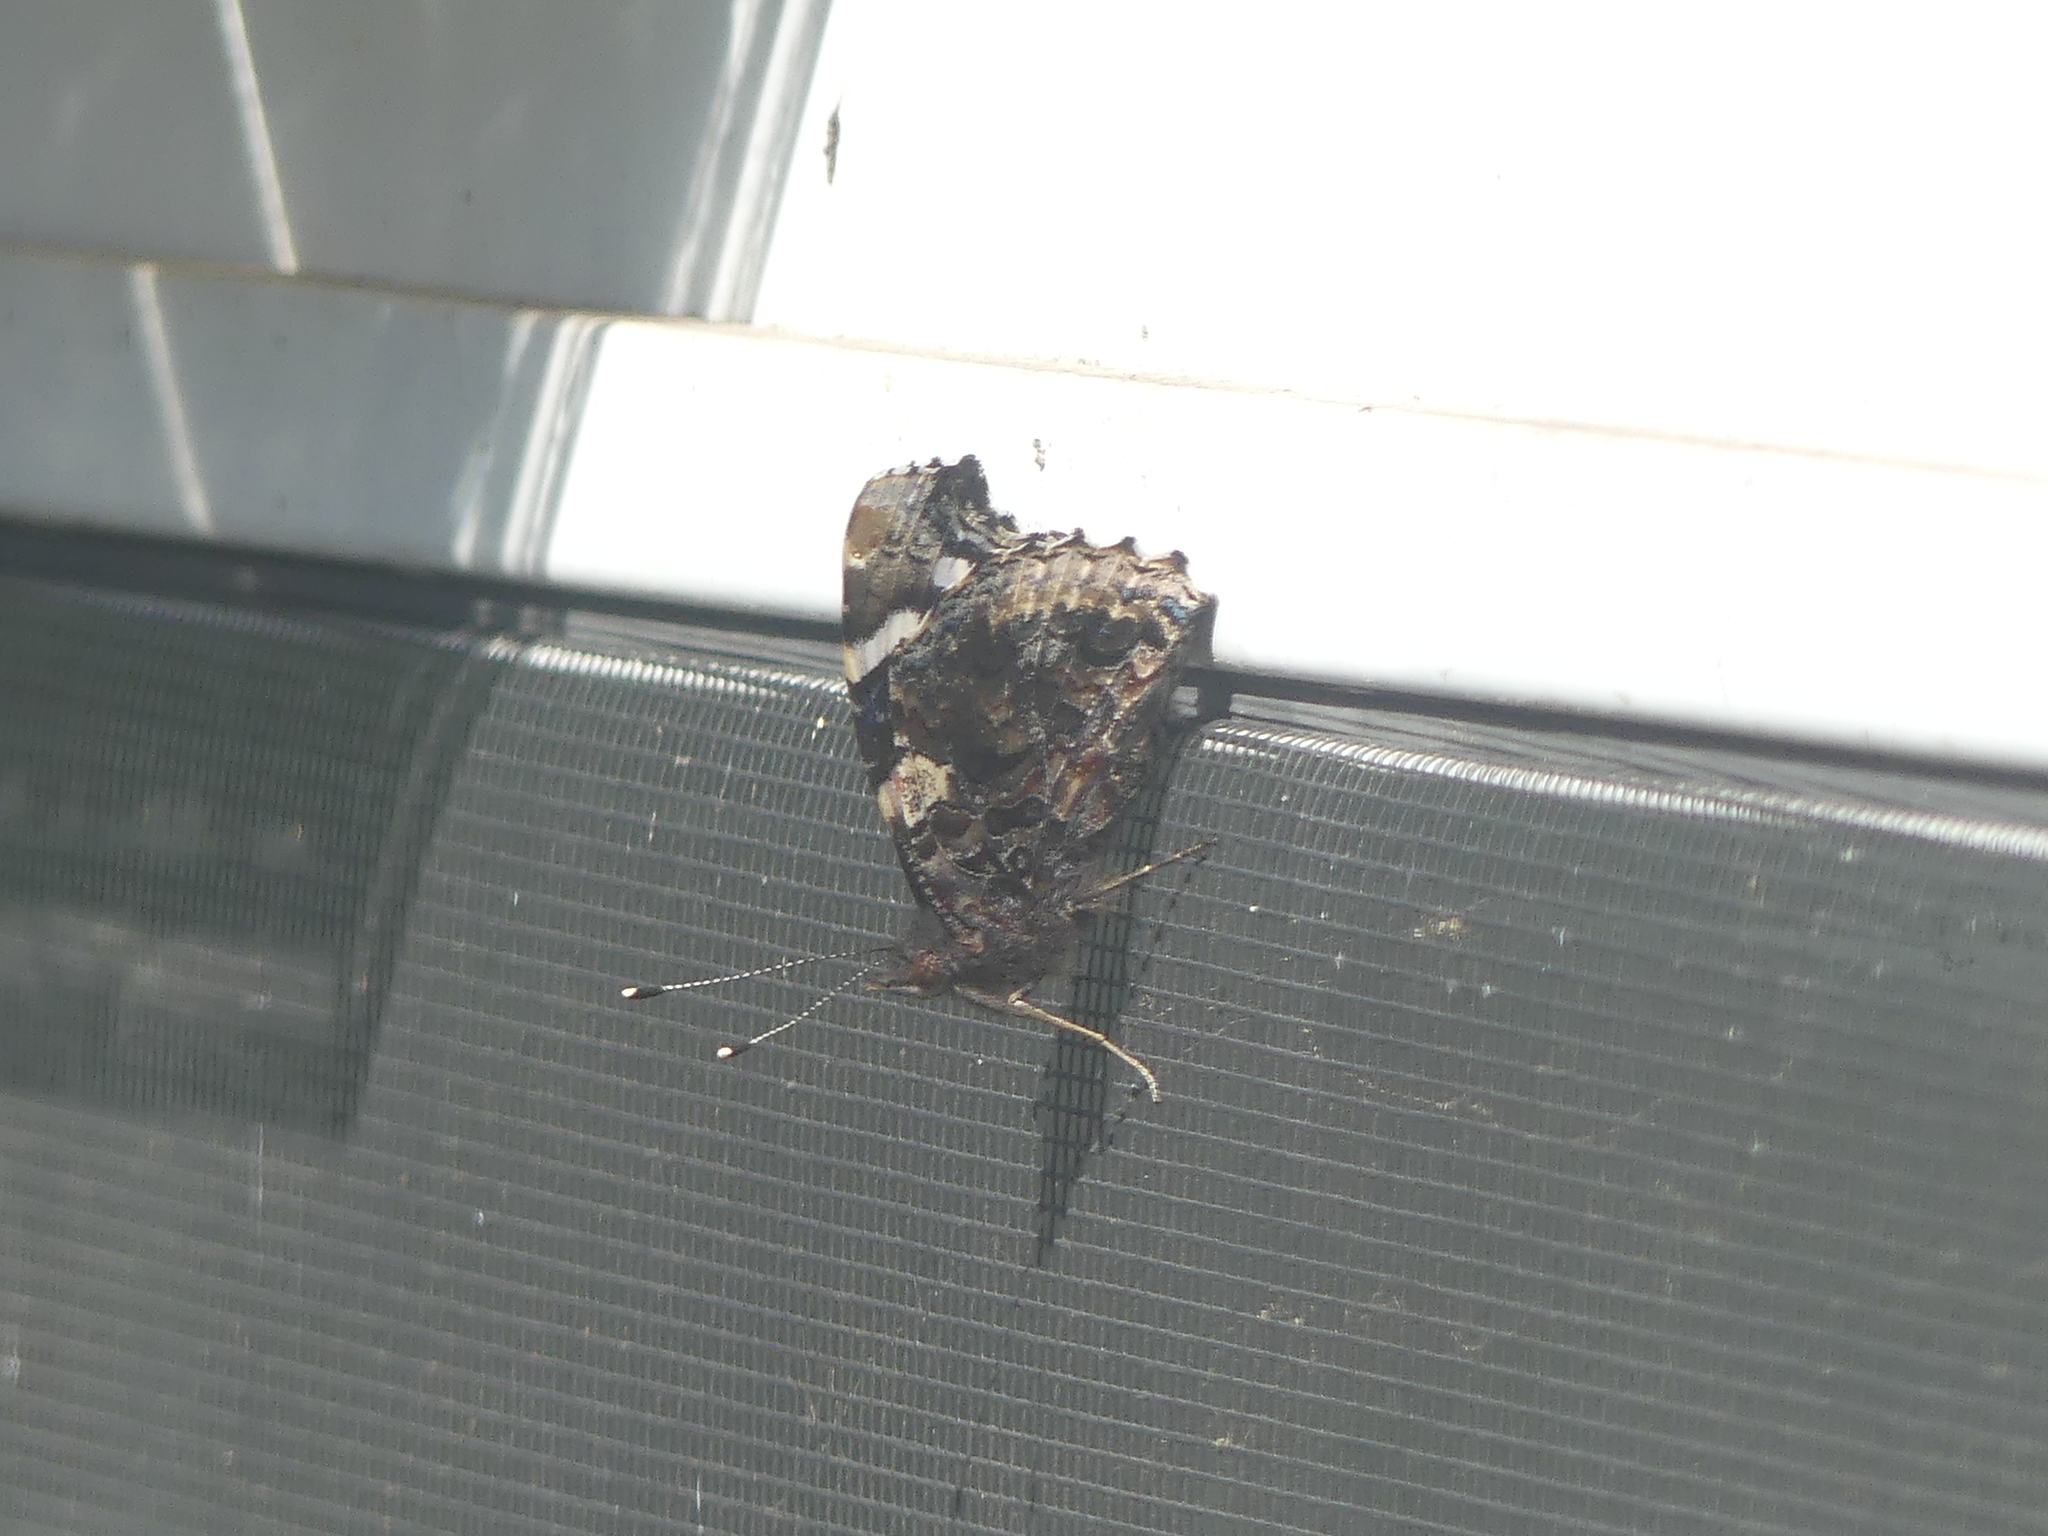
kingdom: Animalia
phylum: Arthropoda
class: Insecta
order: Lepidoptera
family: Nymphalidae
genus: Vanessa
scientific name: Vanessa atalanta
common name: Red admiral
